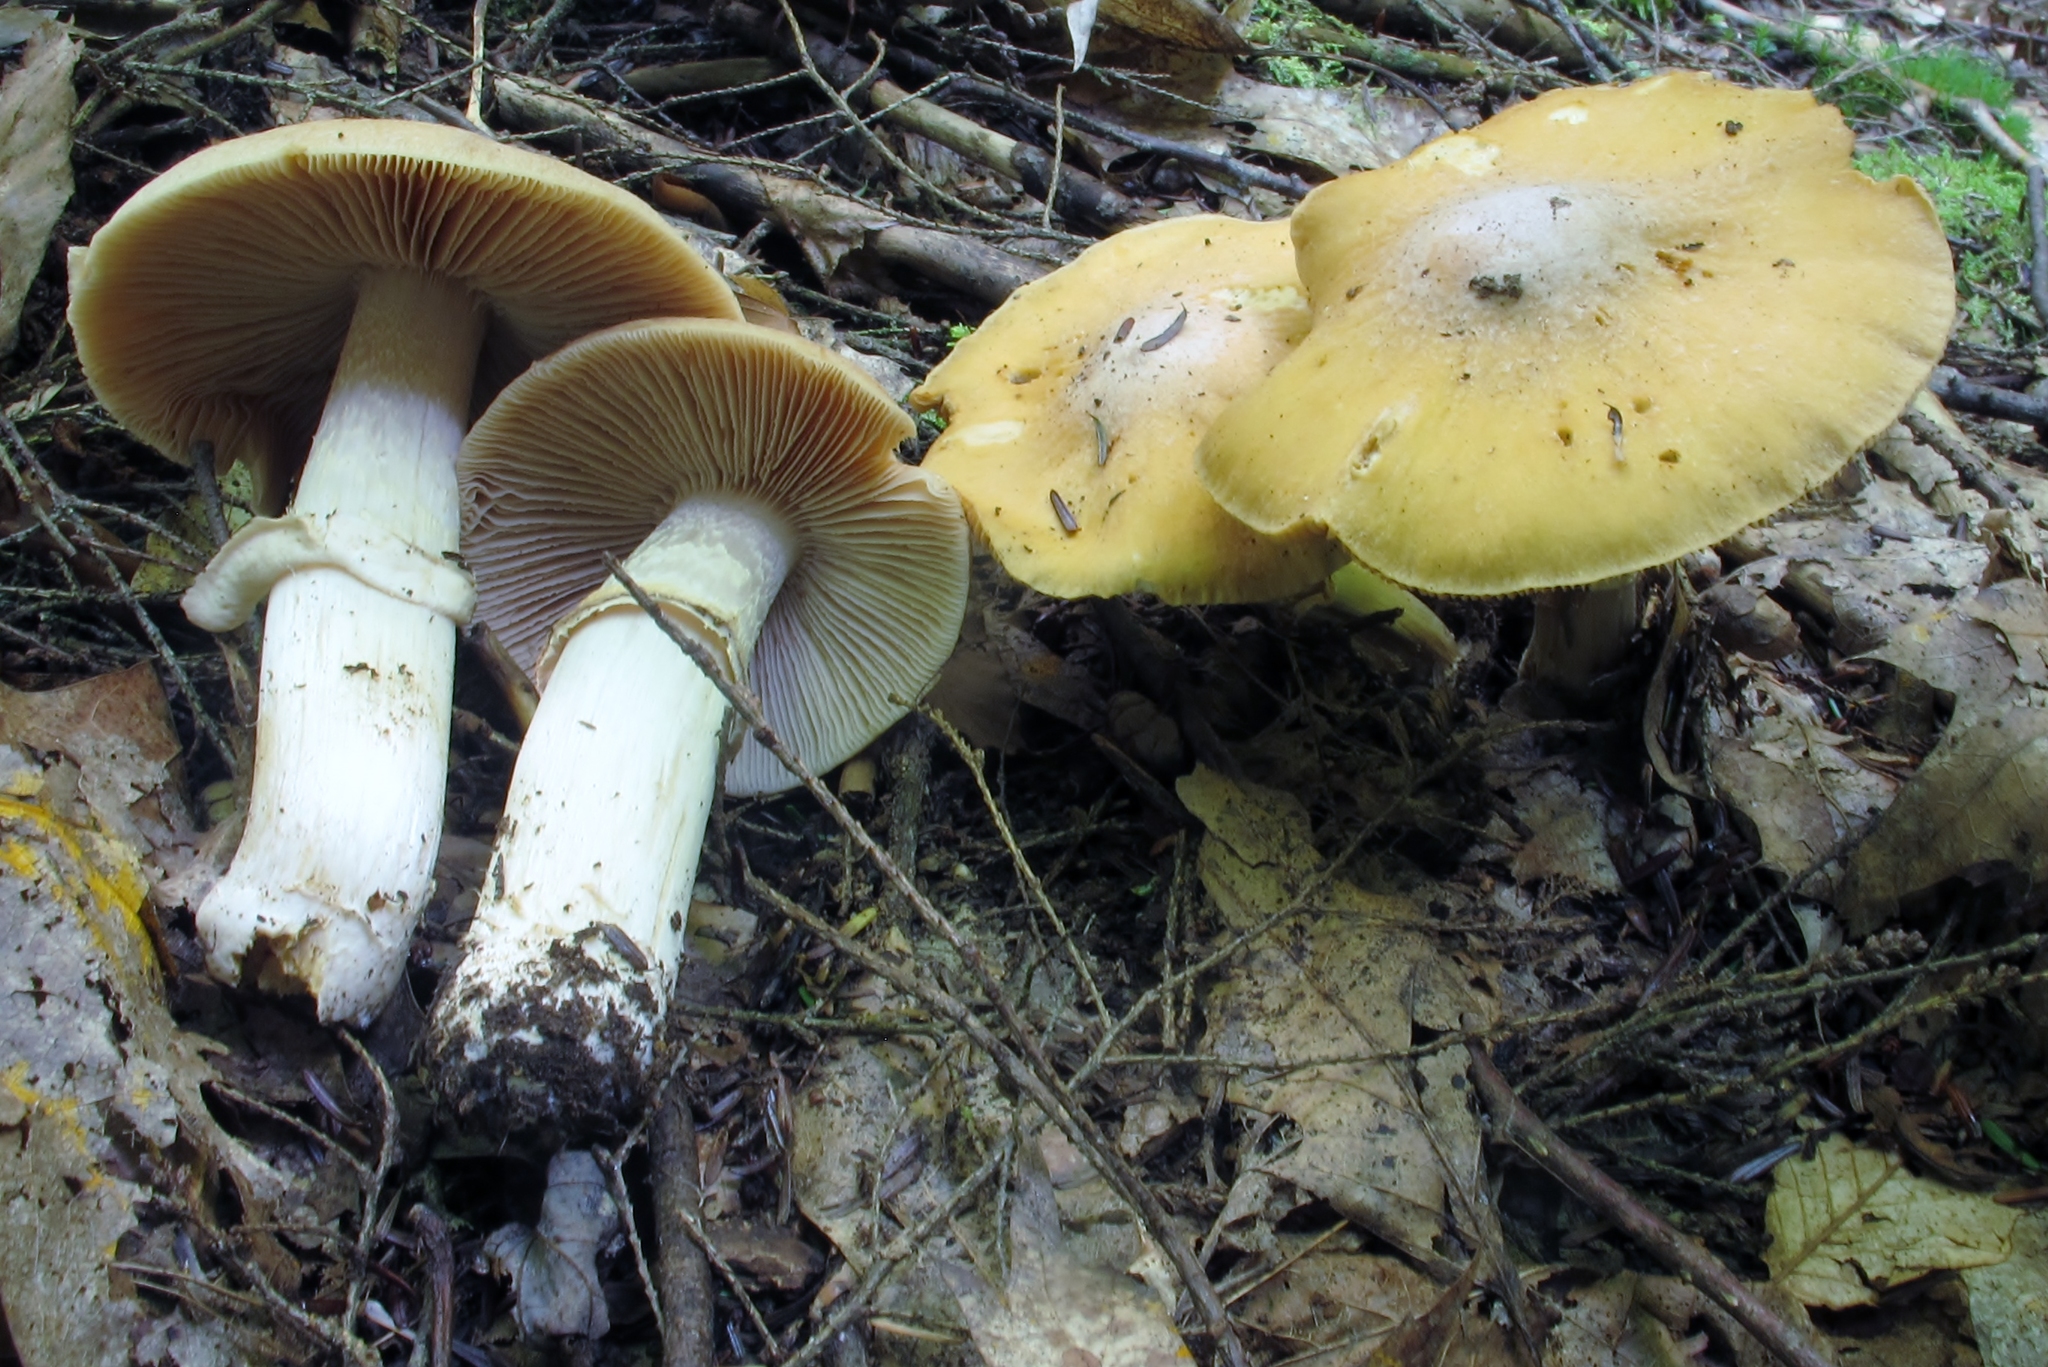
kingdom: Fungi
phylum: Basidiomycota
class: Agaricomycetes
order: Agaricales
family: Cortinariaceae
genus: Cortinarius
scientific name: Cortinarius caperatus
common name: The gypsy
